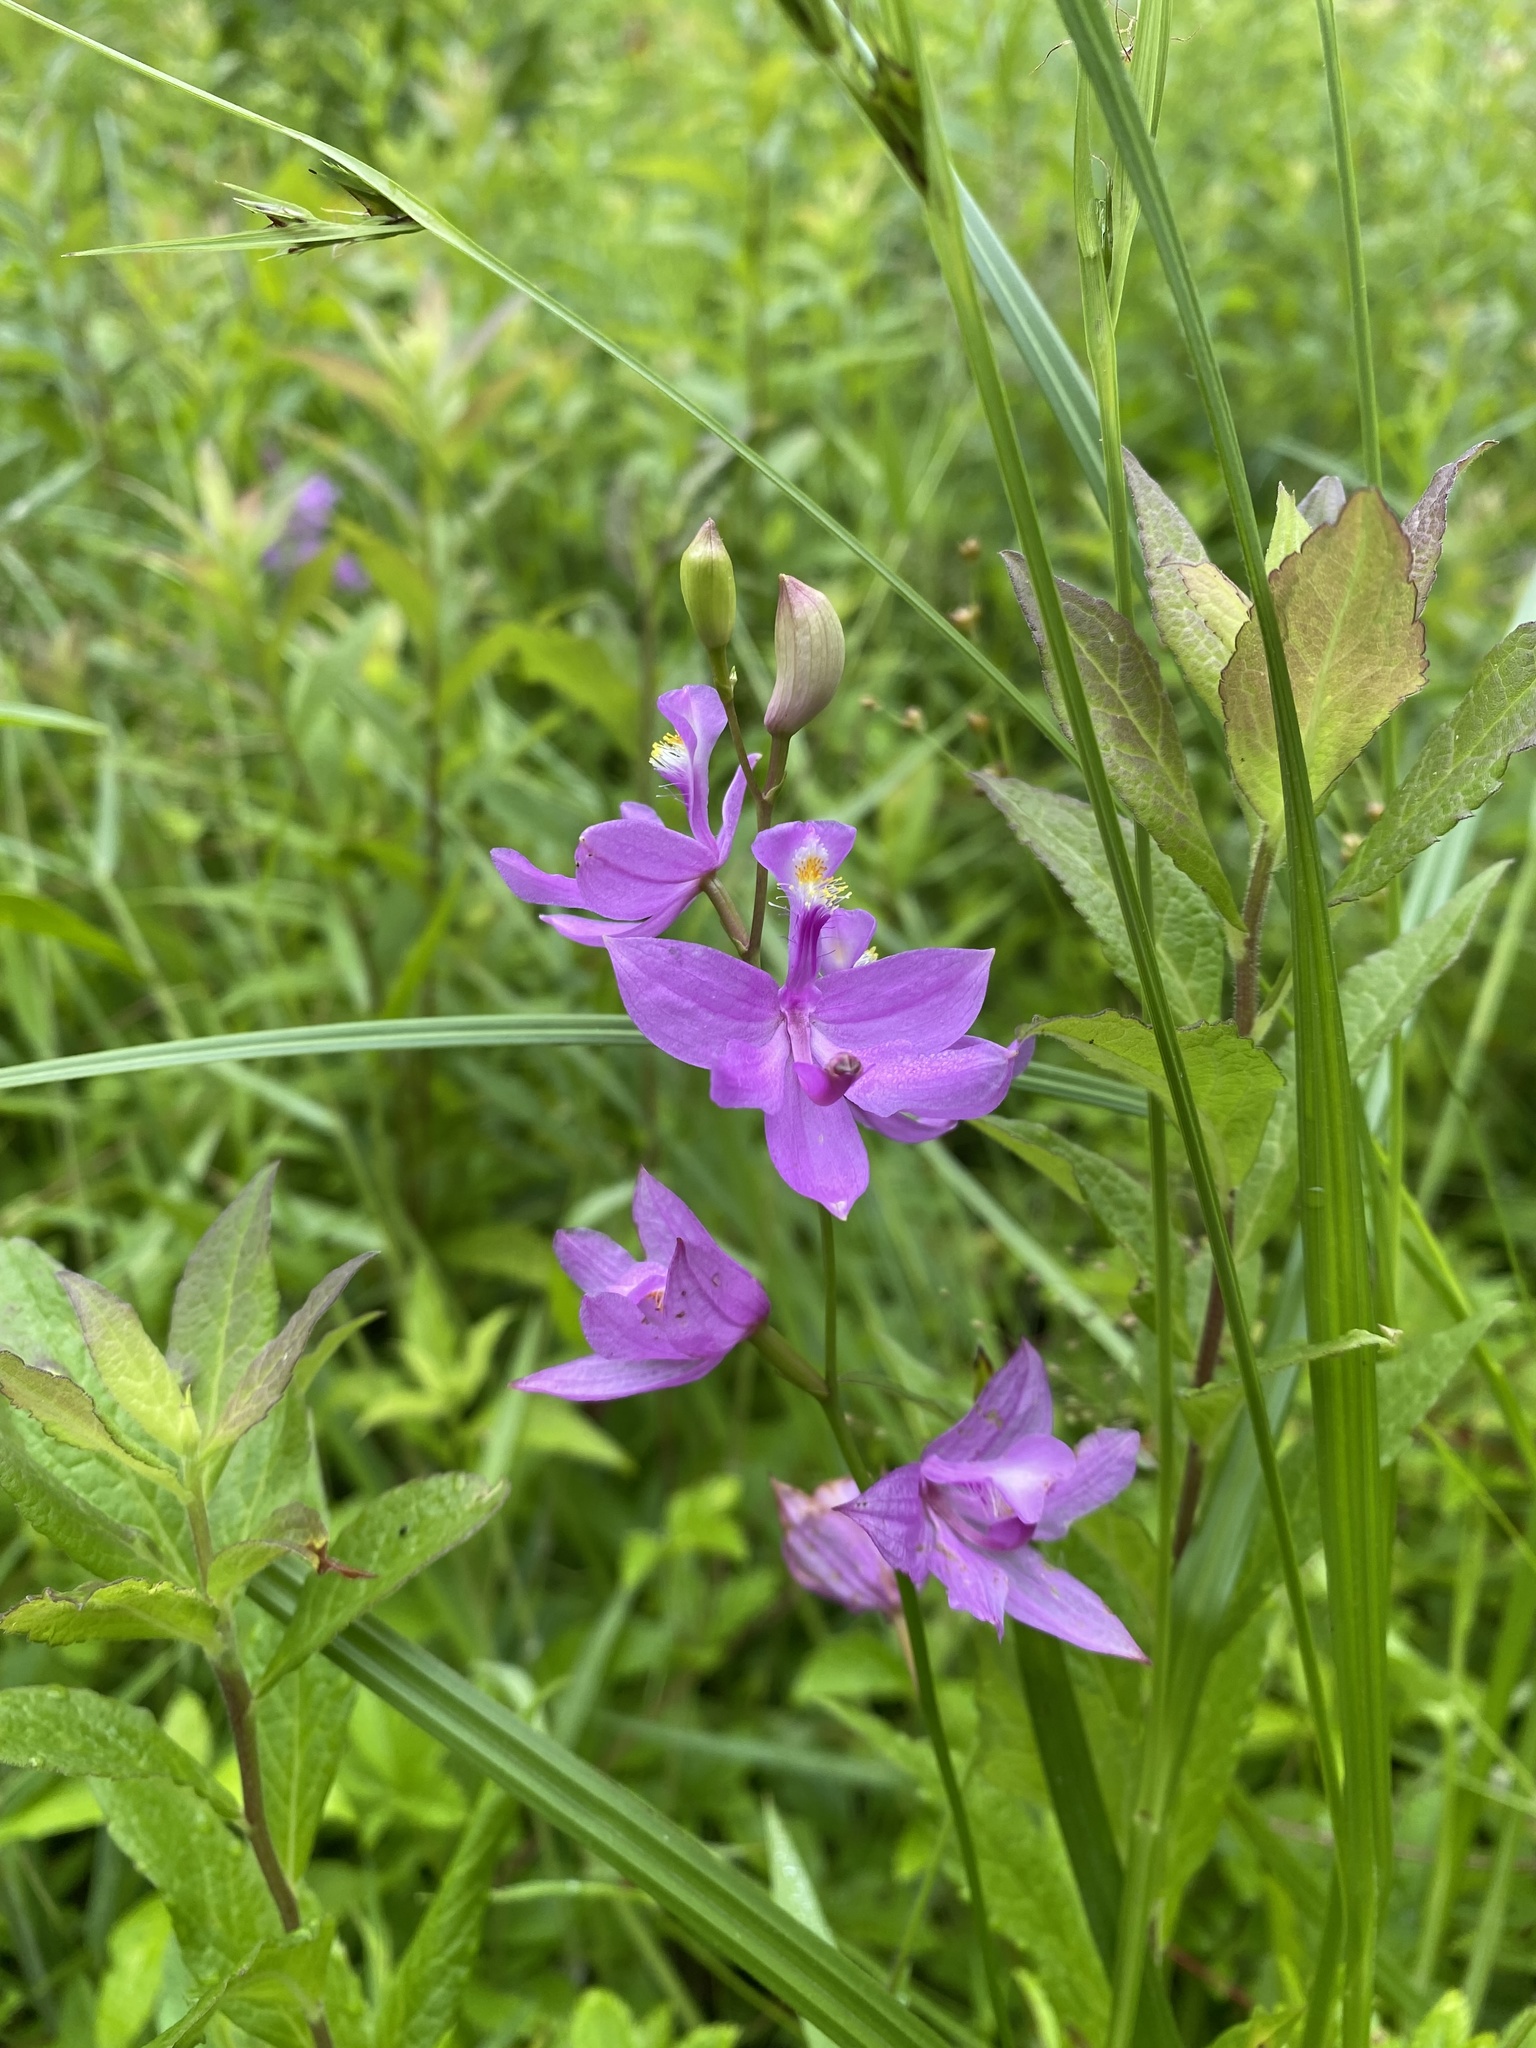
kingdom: Plantae
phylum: Tracheophyta
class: Liliopsida
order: Asparagales
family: Orchidaceae
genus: Calopogon
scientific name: Calopogon tuberosus
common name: Grass-pink
